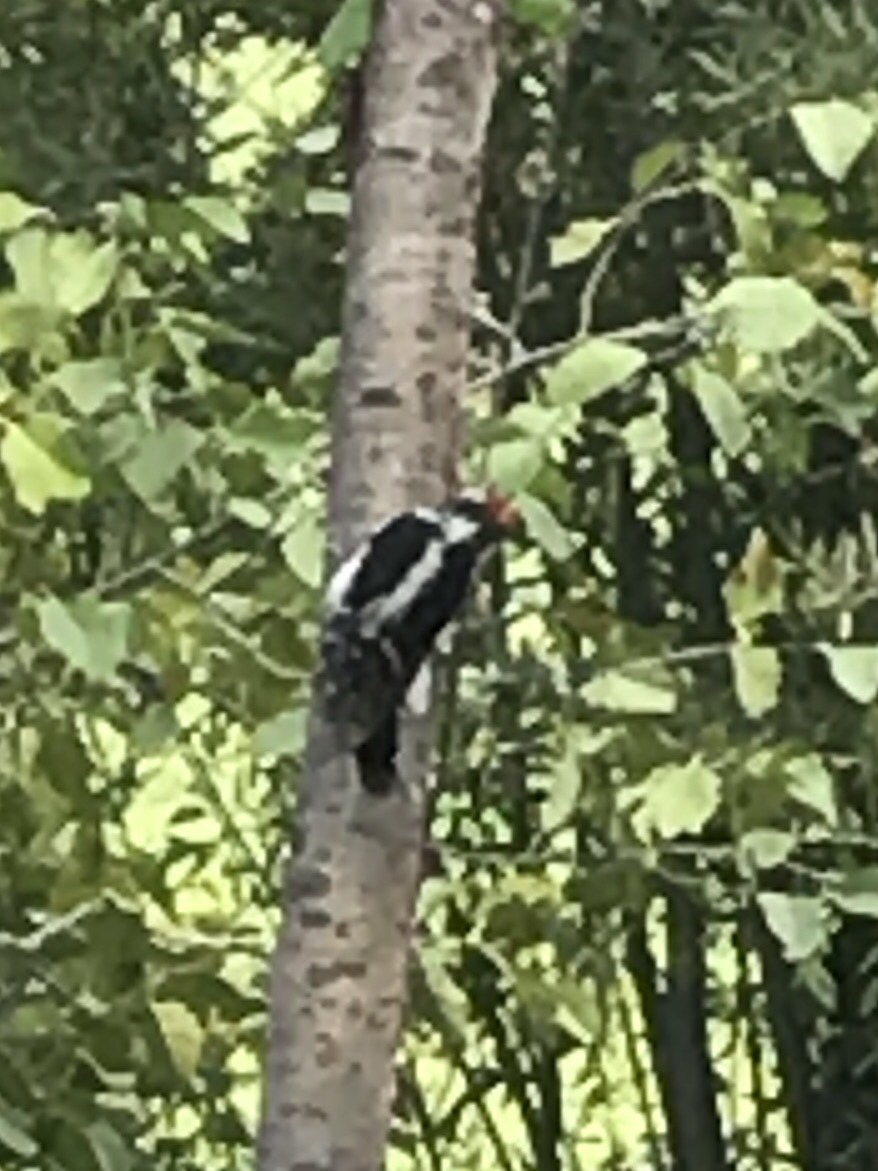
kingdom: Animalia
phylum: Chordata
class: Aves
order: Piciformes
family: Picidae
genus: Dryobates
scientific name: Dryobates pubescens
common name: Downy woodpecker
